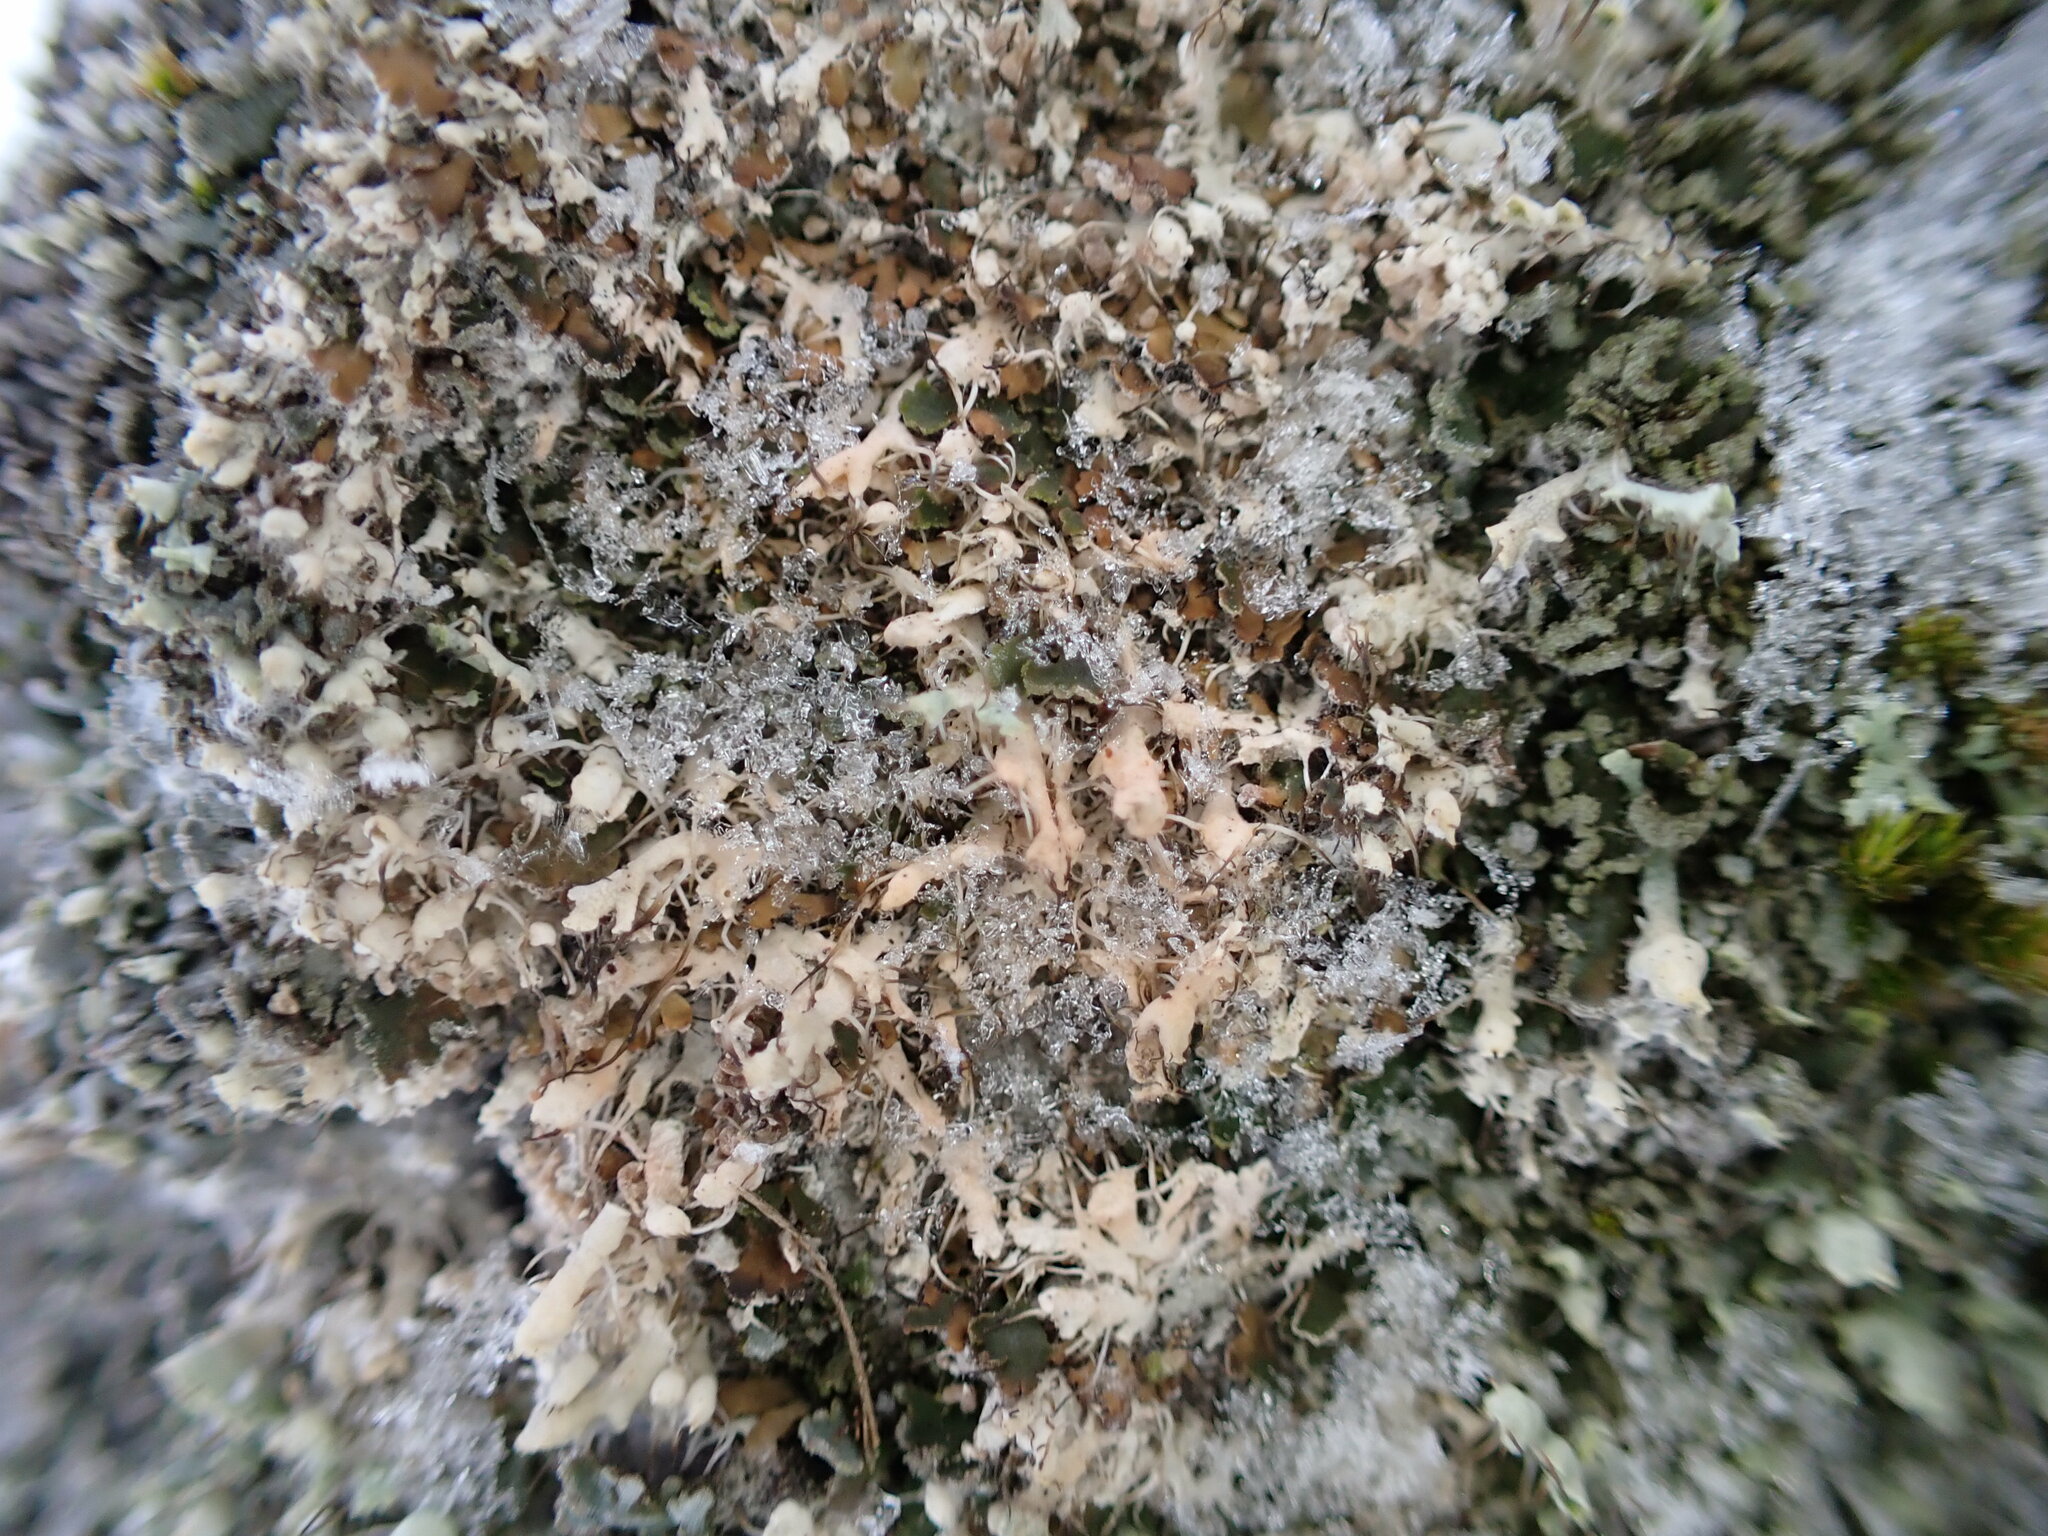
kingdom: Fungi
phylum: Ascomycota
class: Lecanoromycetes
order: Caliciales
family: Physciaceae
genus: Physcia
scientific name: Physcia adscendens
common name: Hooded rosette lichen
